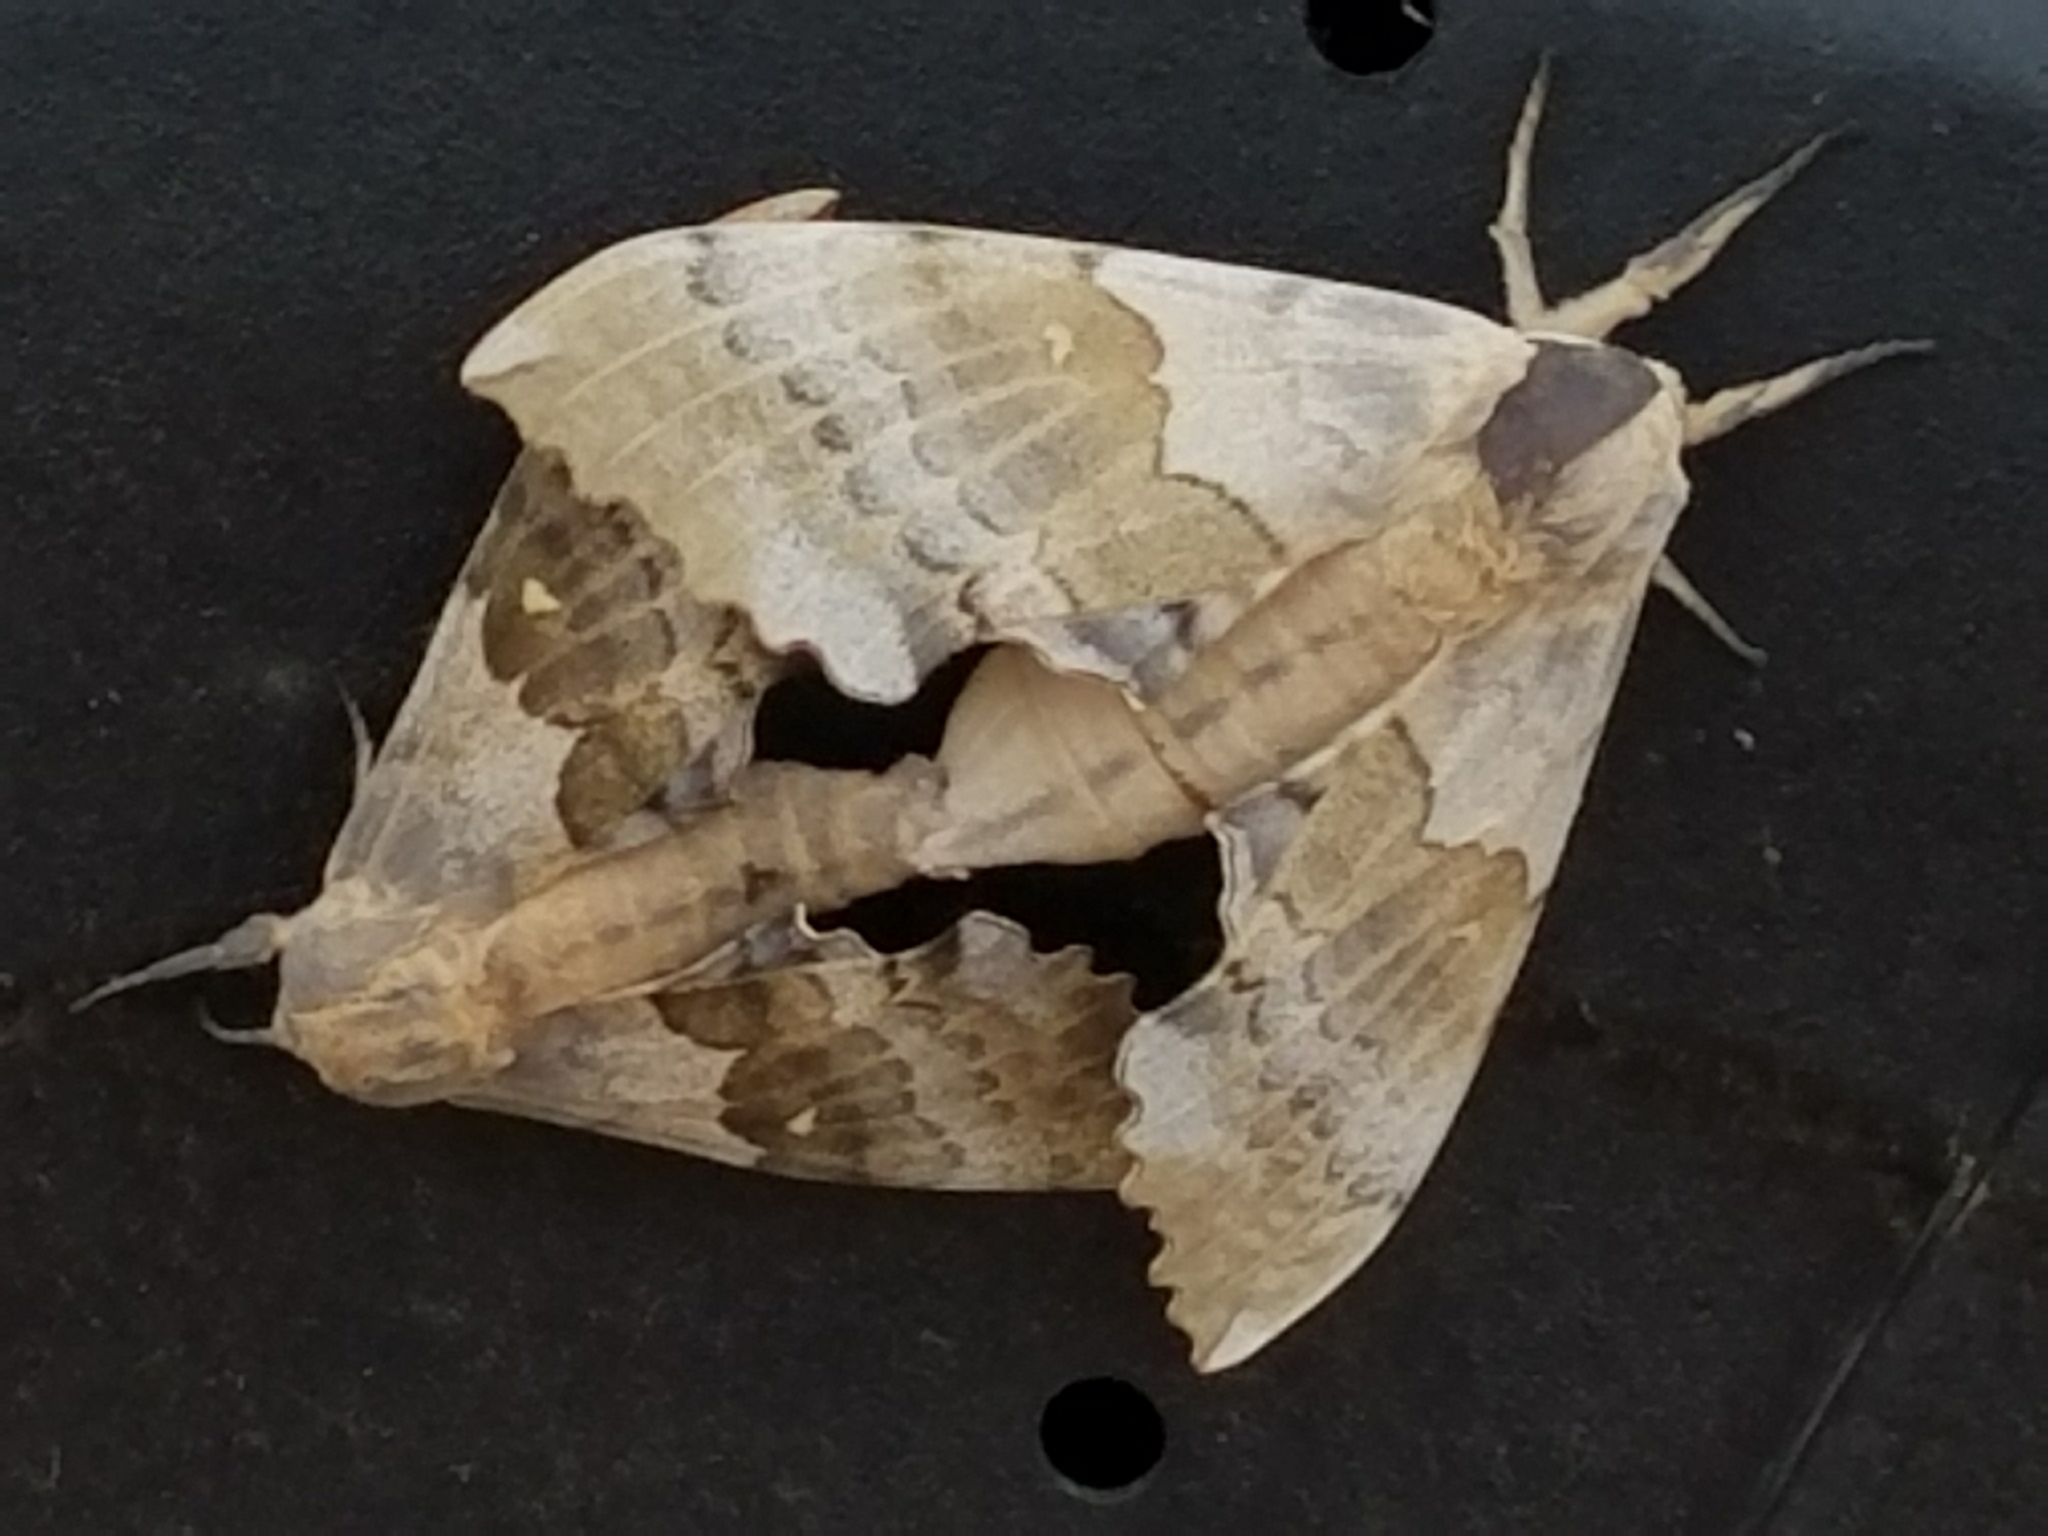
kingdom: Animalia
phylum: Arthropoda
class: Insecta
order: Lepidoptera
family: Sphingidae
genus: Pachysphinx
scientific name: Pachysphinx occidentalis
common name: Western poplar sphinx
